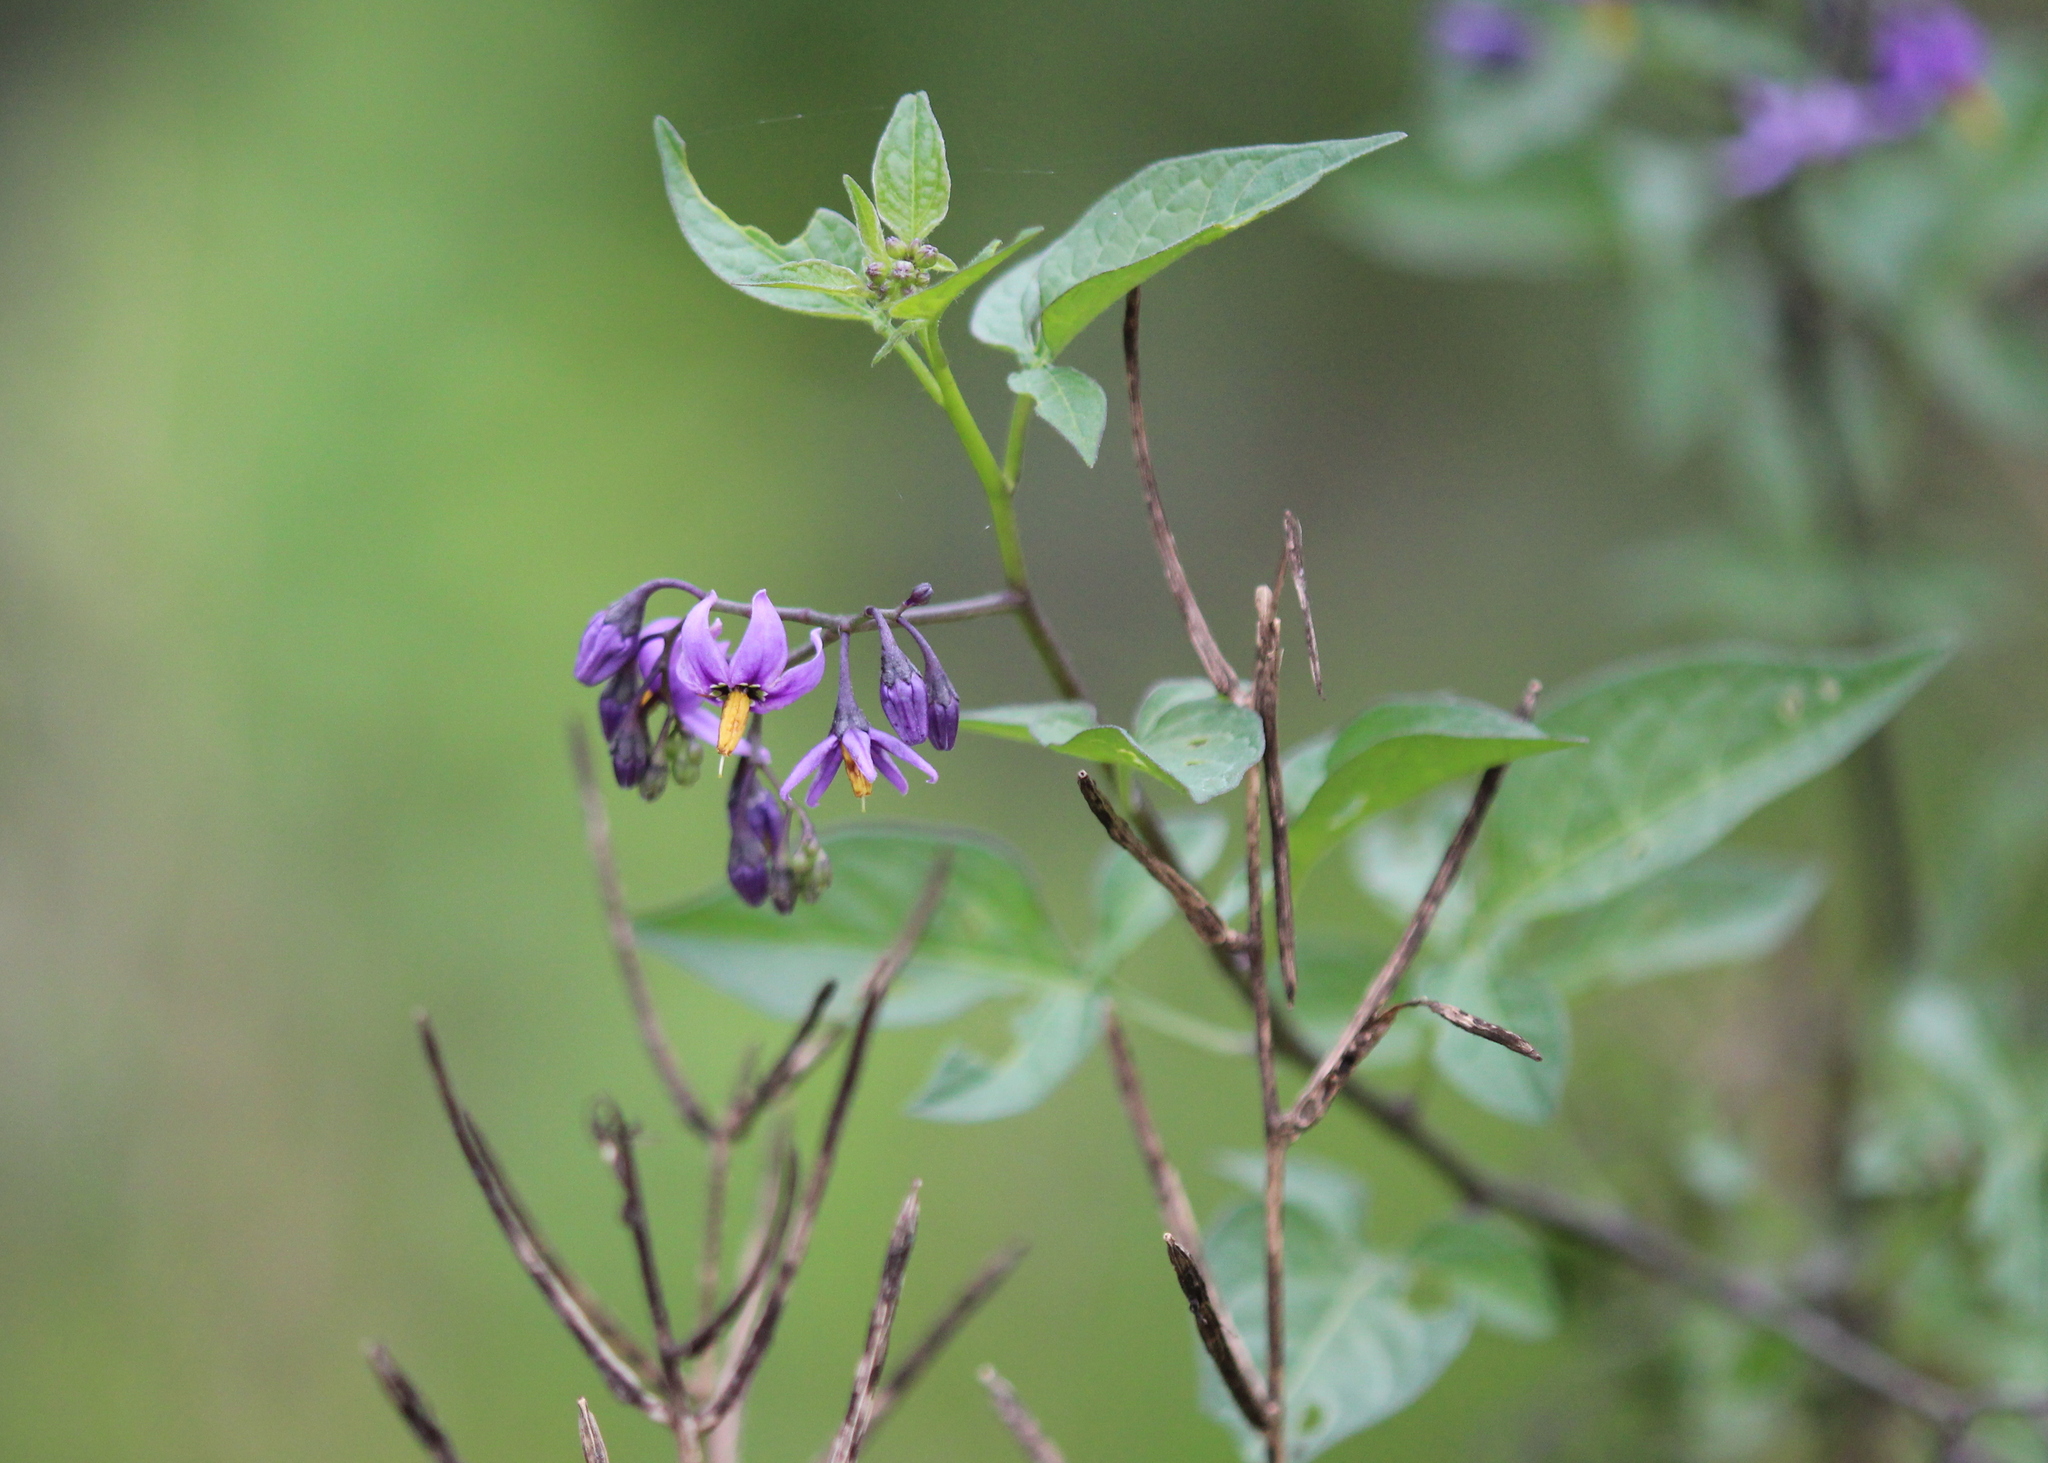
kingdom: Plantae
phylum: Tracheophyta
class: Magnoliopsida
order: Solanales
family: Solanaceae
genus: Solanum
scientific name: Solanum dulcamara
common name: Climbing nightshade
